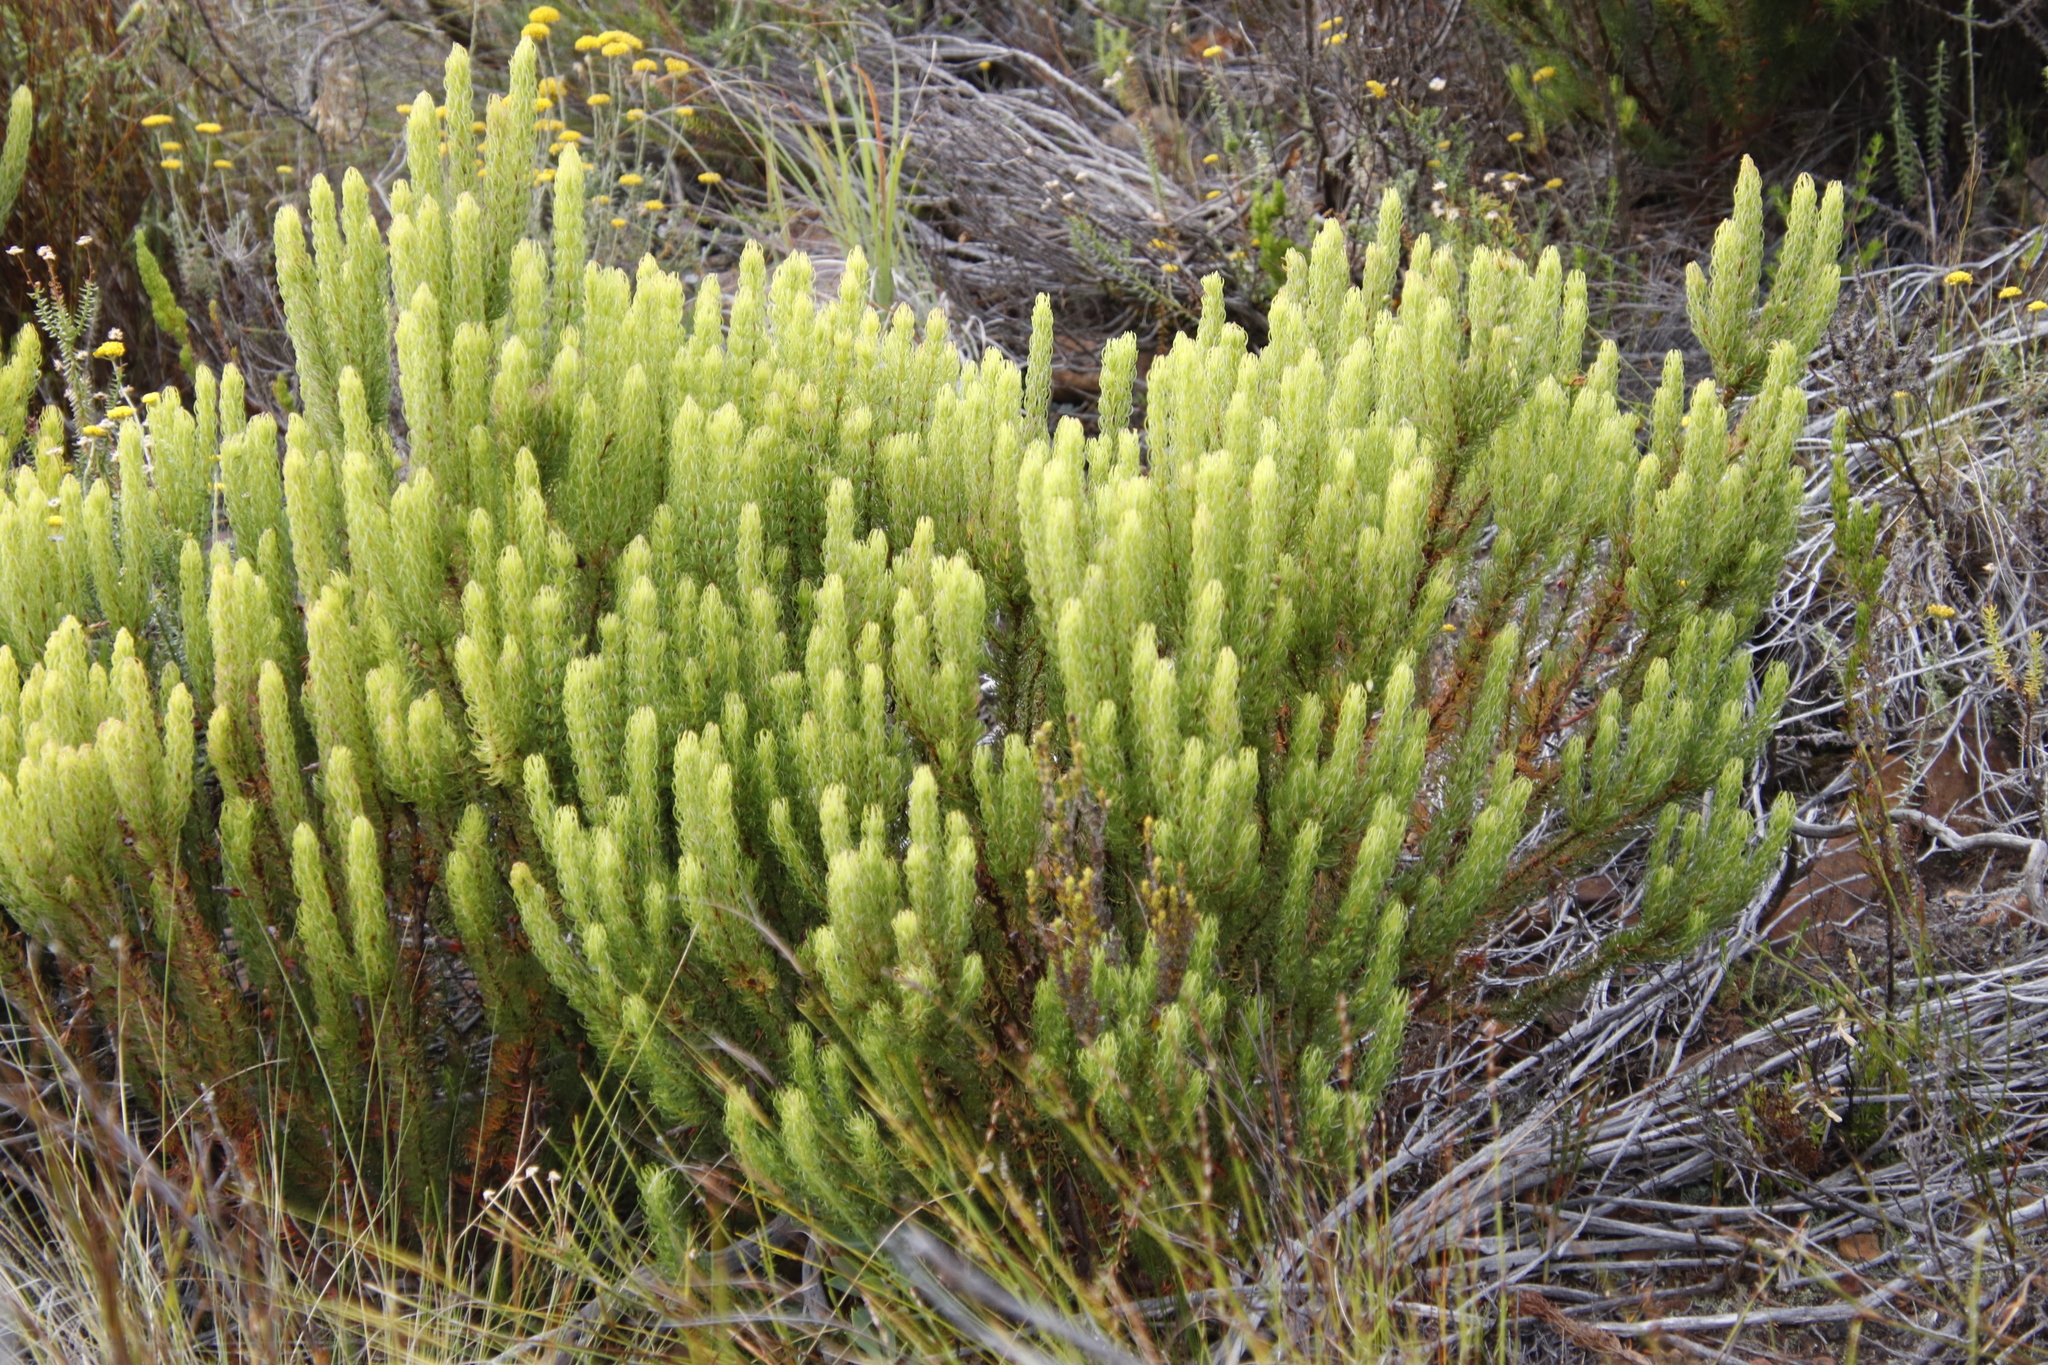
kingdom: Plantae
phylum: Tracheophyta
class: Magnoliopsida
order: Ericales
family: Ericaceae
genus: Erica
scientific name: Erica plukenetii
